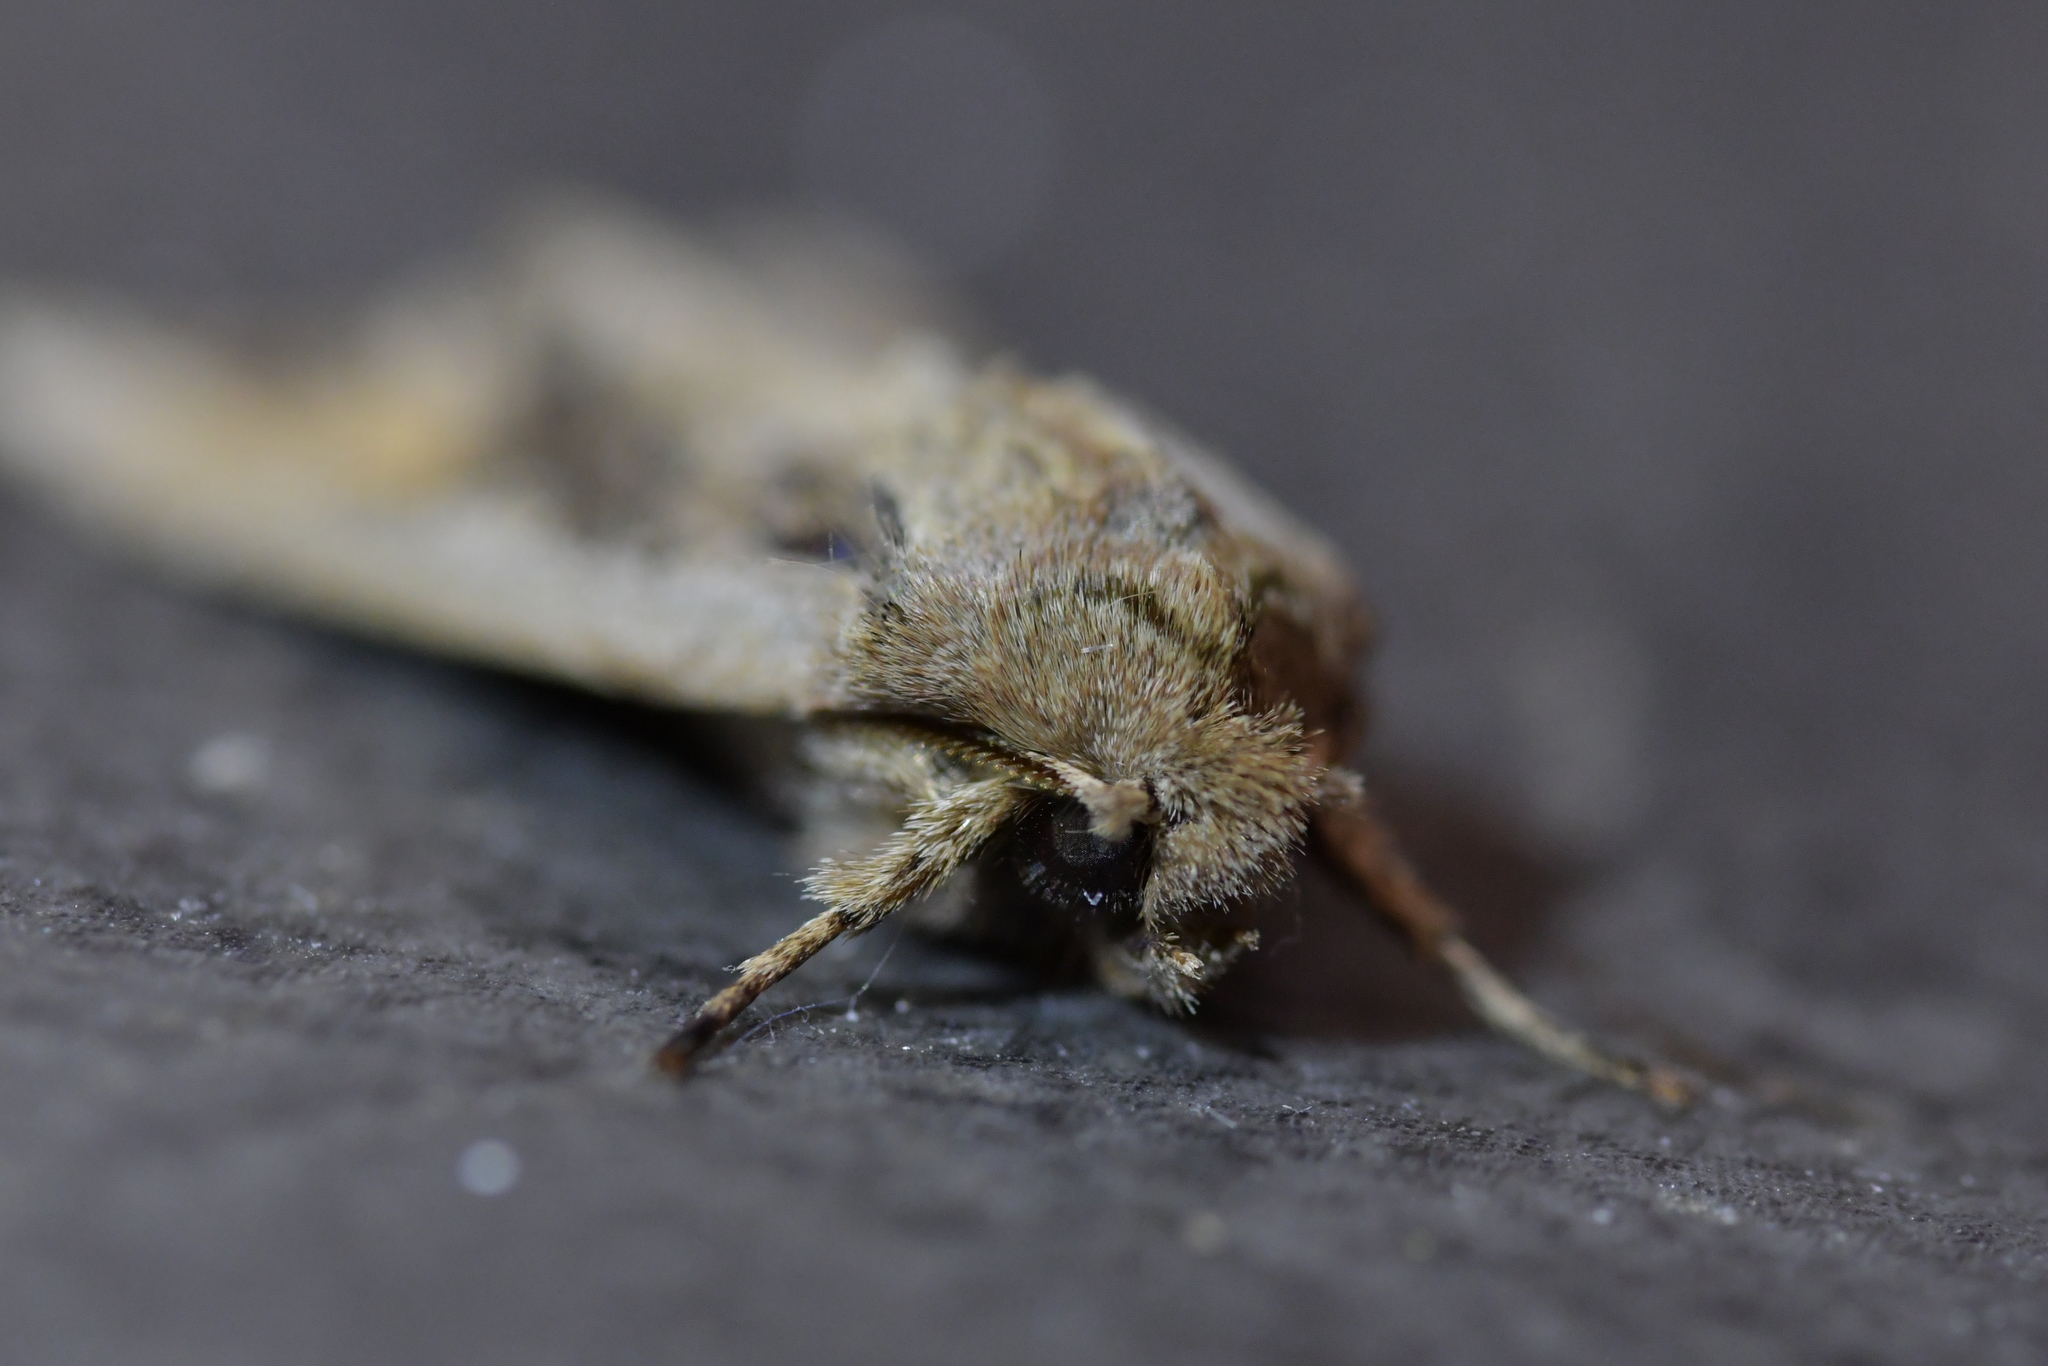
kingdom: Animalia
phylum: Arthropoda
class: Insecta
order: Lepidoptera
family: Noctuidae
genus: Ichneutica
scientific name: Ichneutica
